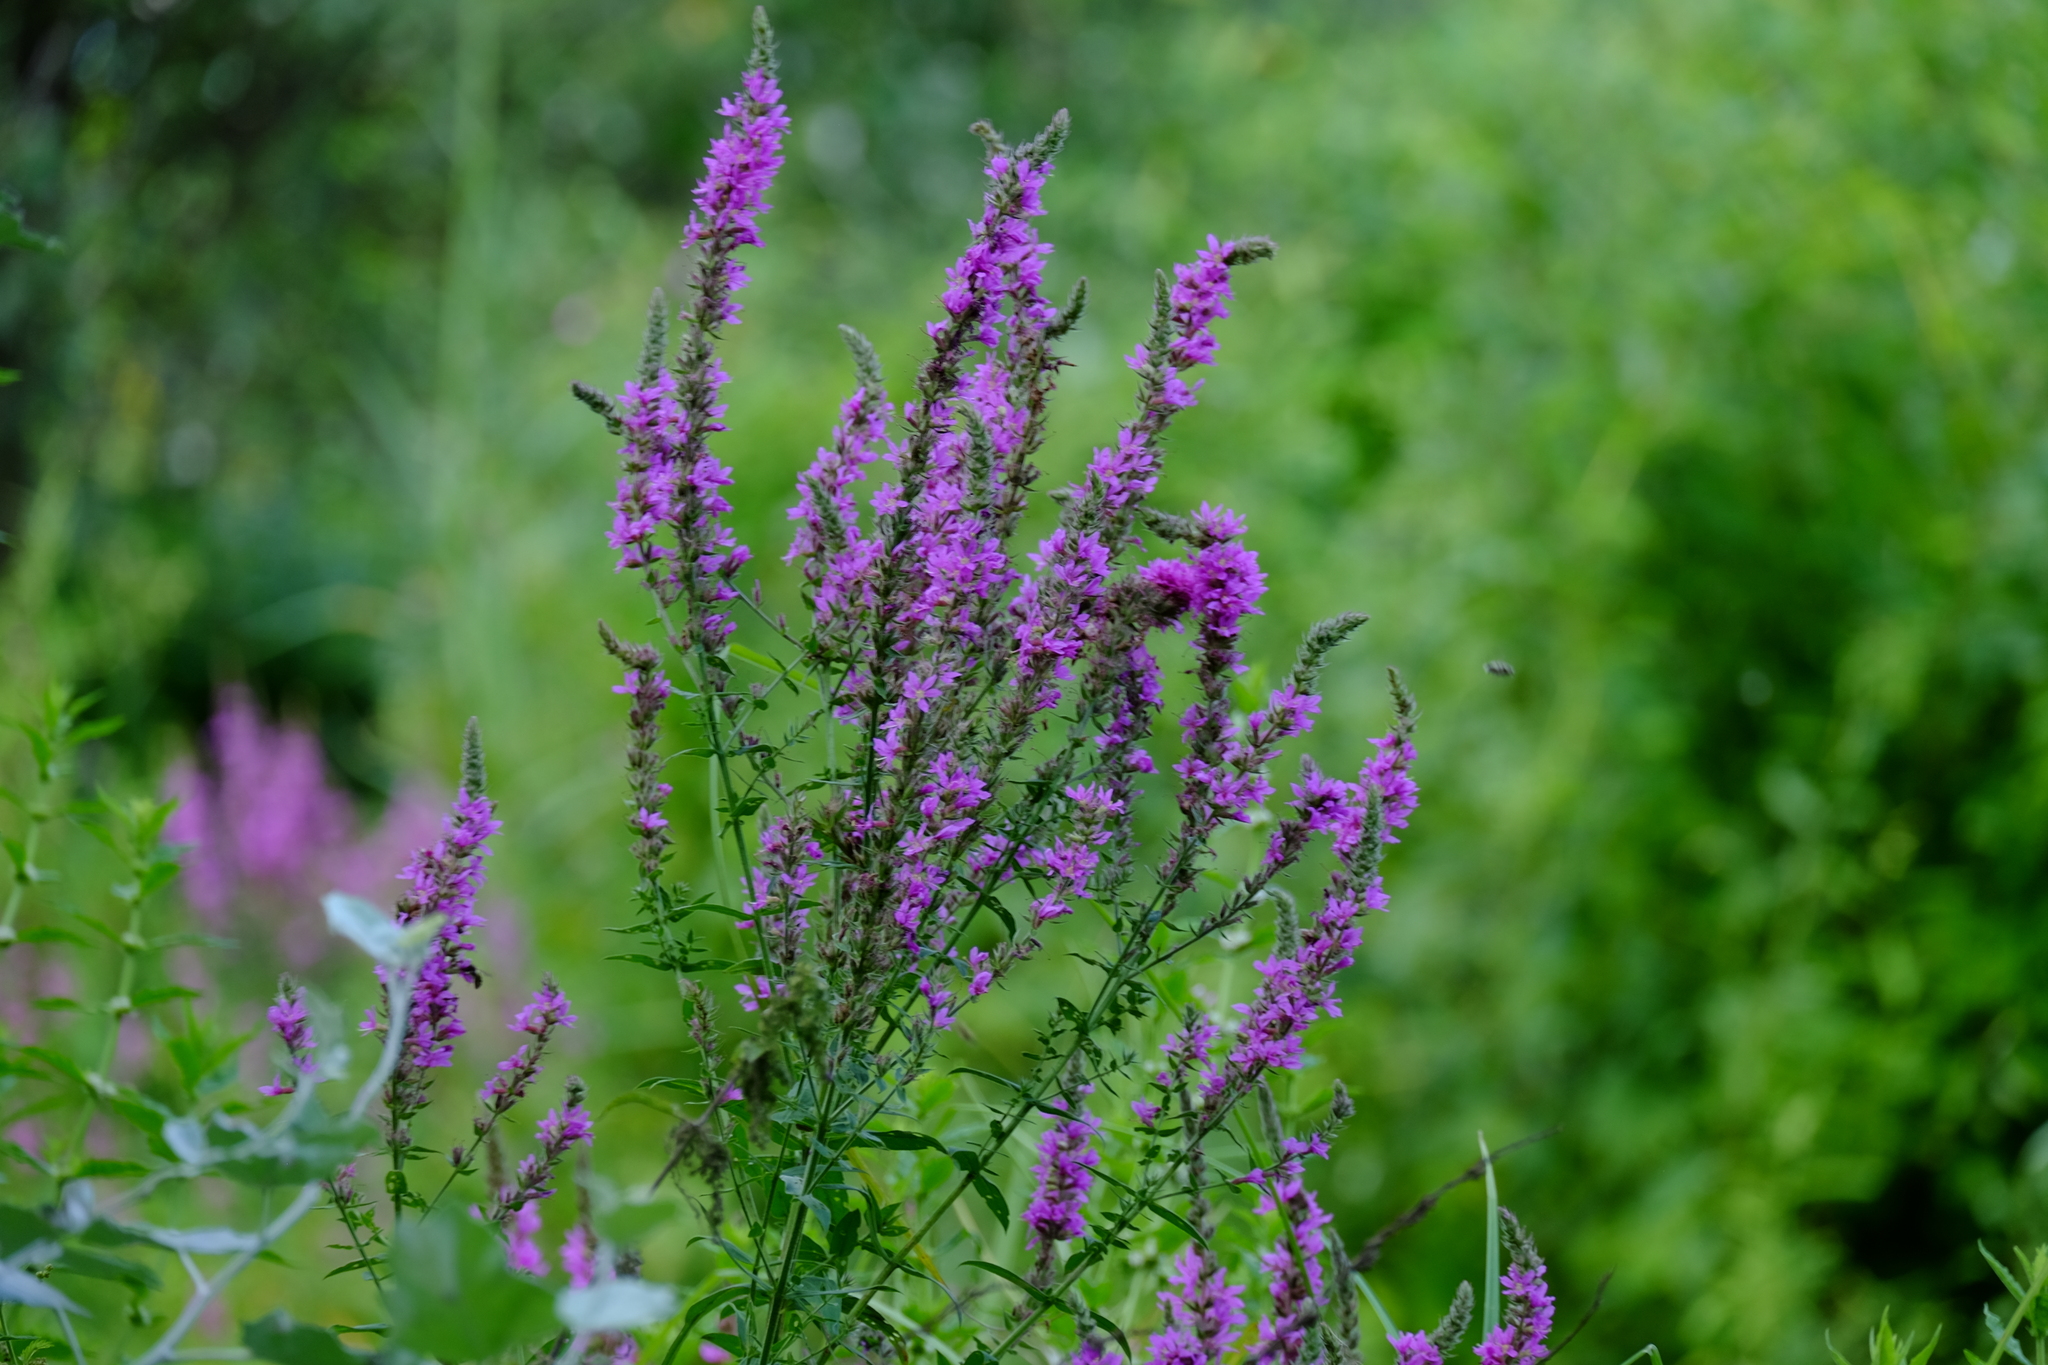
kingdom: Plantae
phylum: Tracheophyta
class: Magnoliopsida
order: Myrtales
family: Lythraceae
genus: Lythrum
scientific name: Lythrum salicaria
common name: Purple loosestrife
